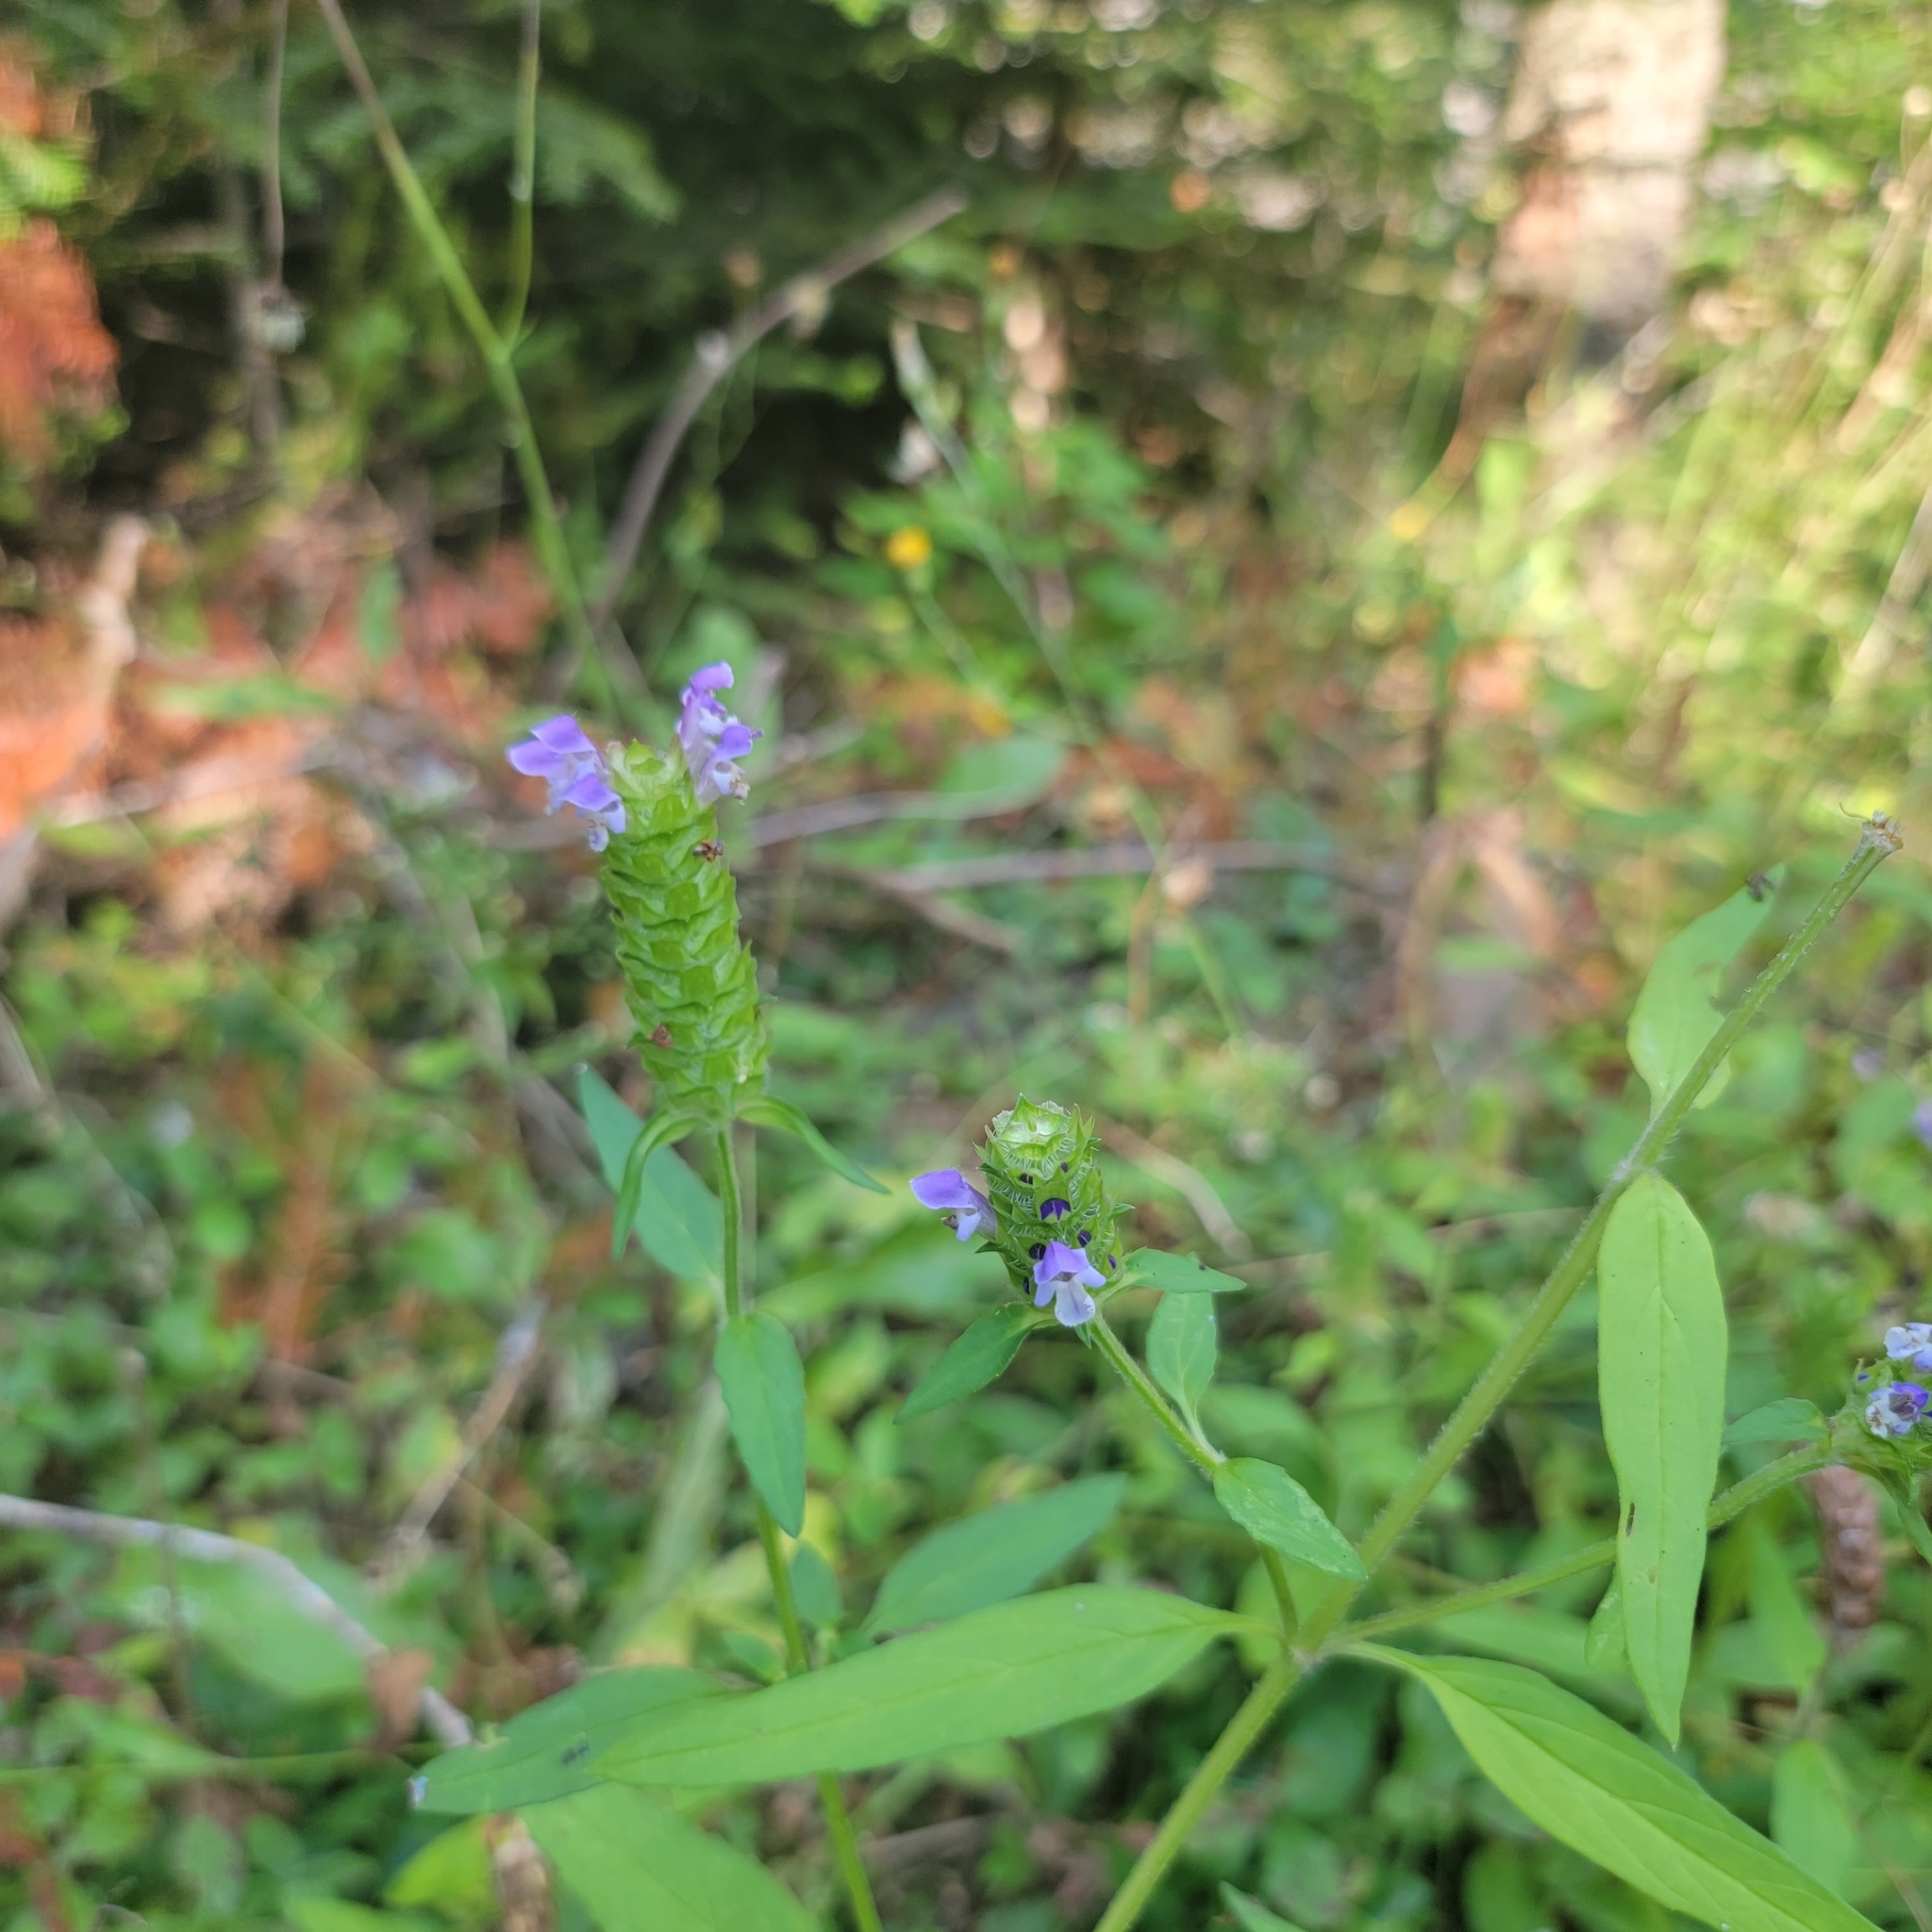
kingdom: Plantae
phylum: Tracheophyta
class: Magnoliopsida
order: Lamiales
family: Lamiaceae
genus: Prunella
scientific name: Prunella vulgaris
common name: Heal-all
